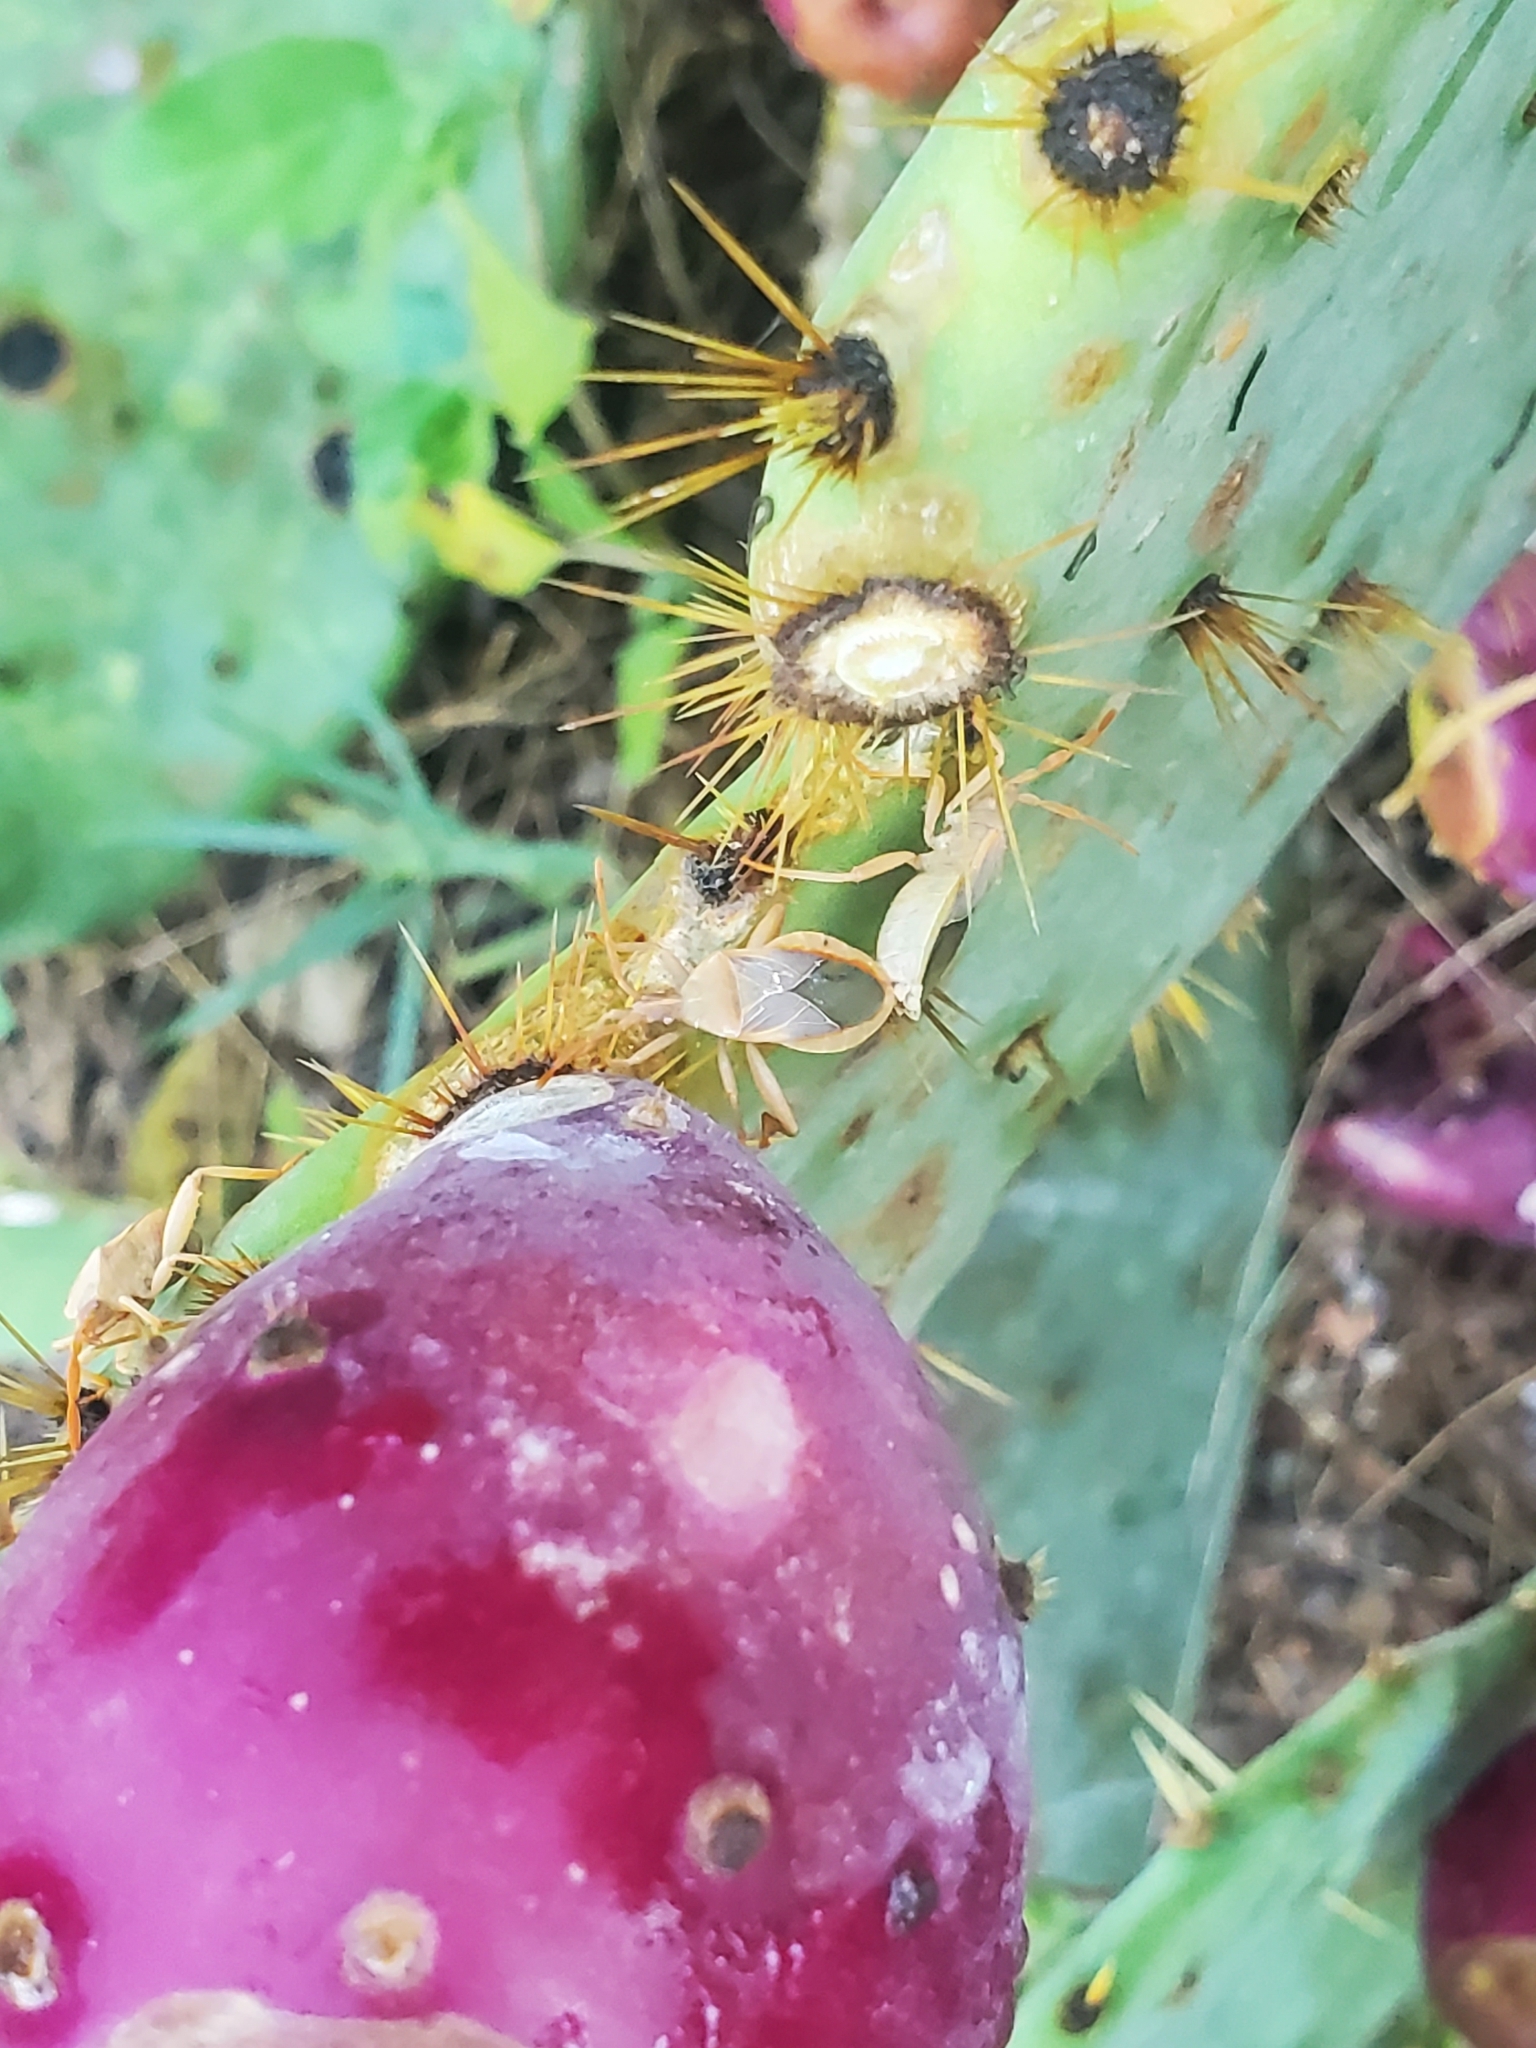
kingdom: Animalia
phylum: Arthropoda
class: Insecta
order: Hemiptera
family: Coreidae
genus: Chelinidea
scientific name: Chelinidea vittiger
